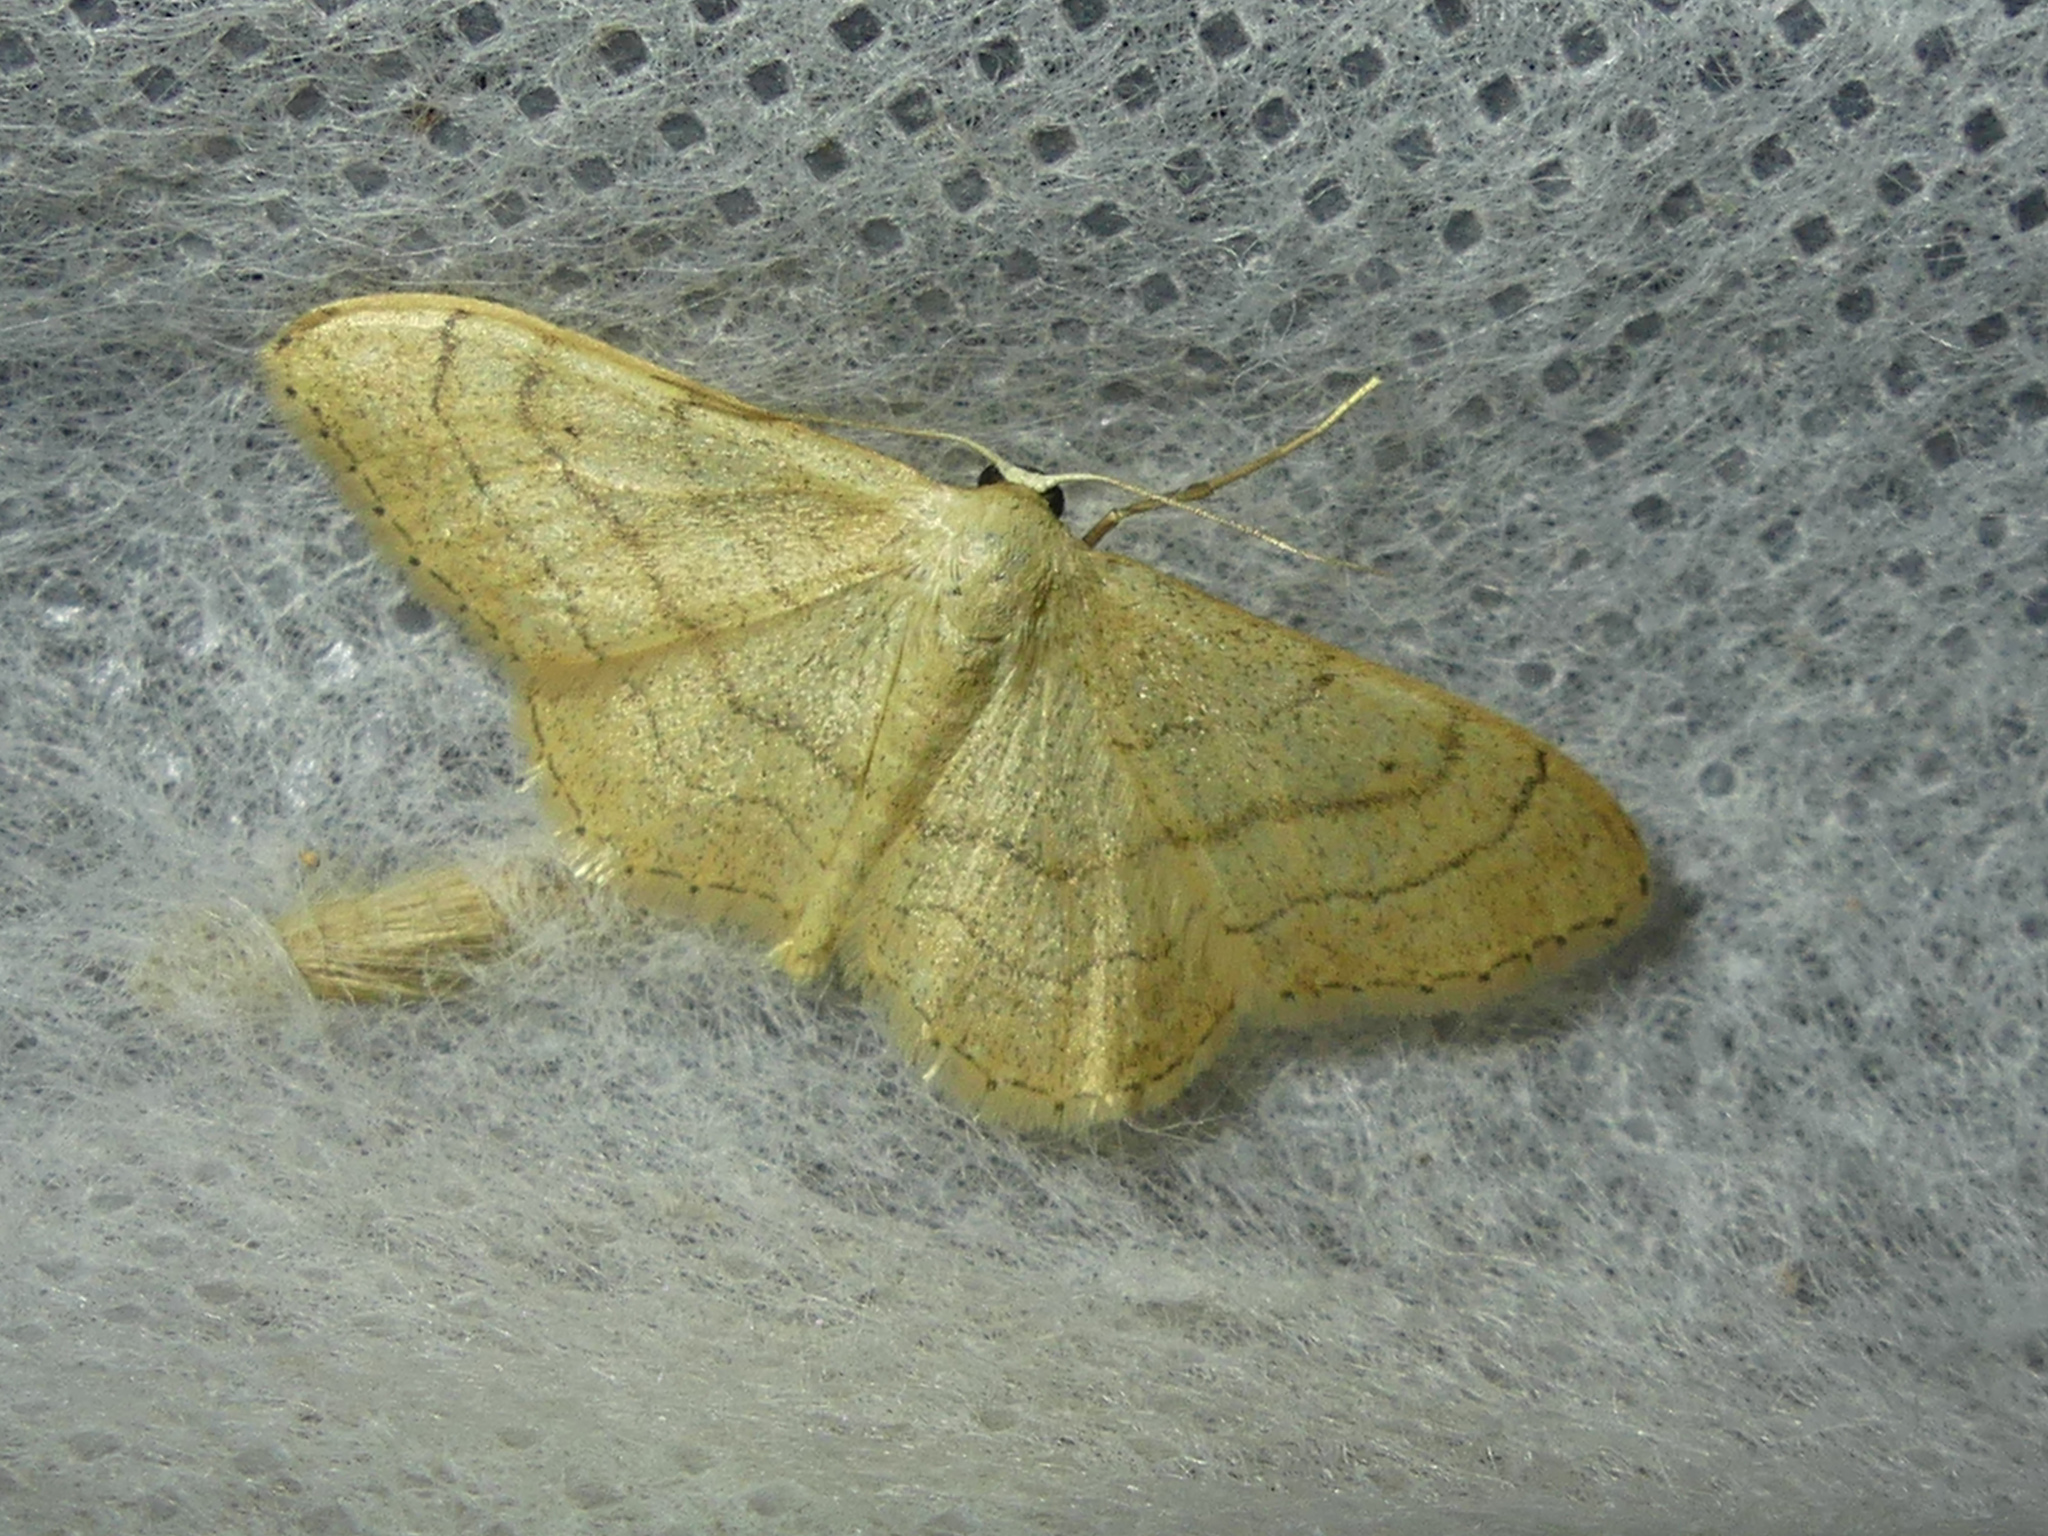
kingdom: Animalia
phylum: Arthropoda
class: Insecta
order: Lepidoptera
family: Geometridae
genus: Idaea
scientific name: Idaea aversata
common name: Riband wave
